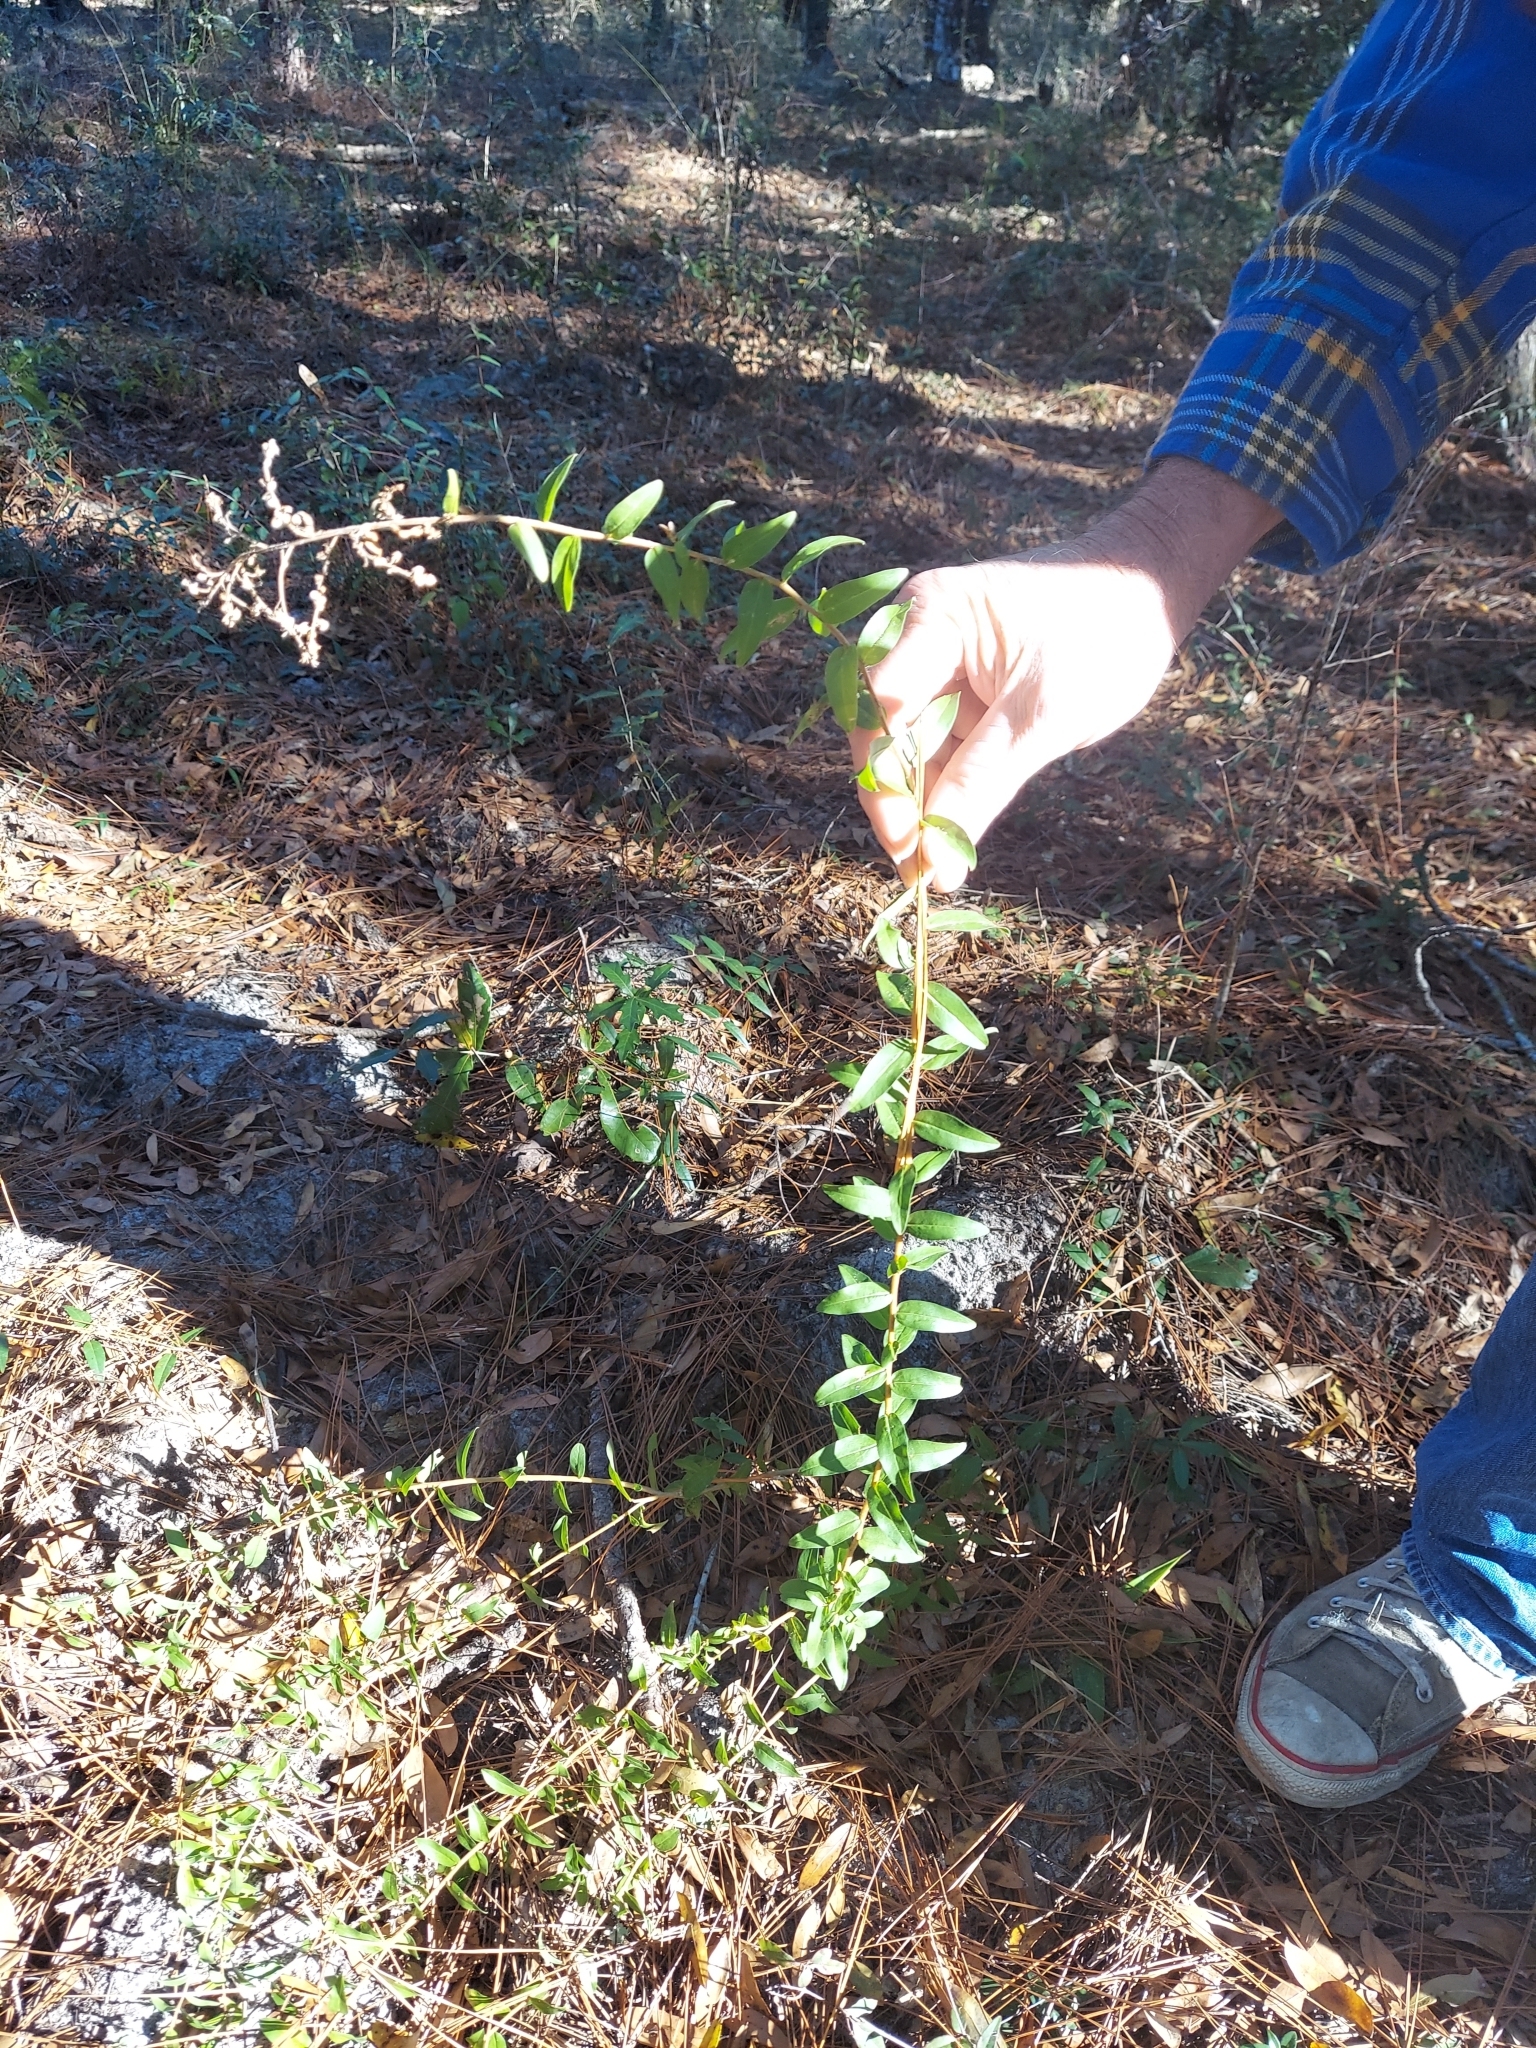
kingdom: Plantae
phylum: Tracheophyta
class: Magnoliopsida
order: Asterales
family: Asteraceae
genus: Solidago
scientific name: Solidago chapmanii
